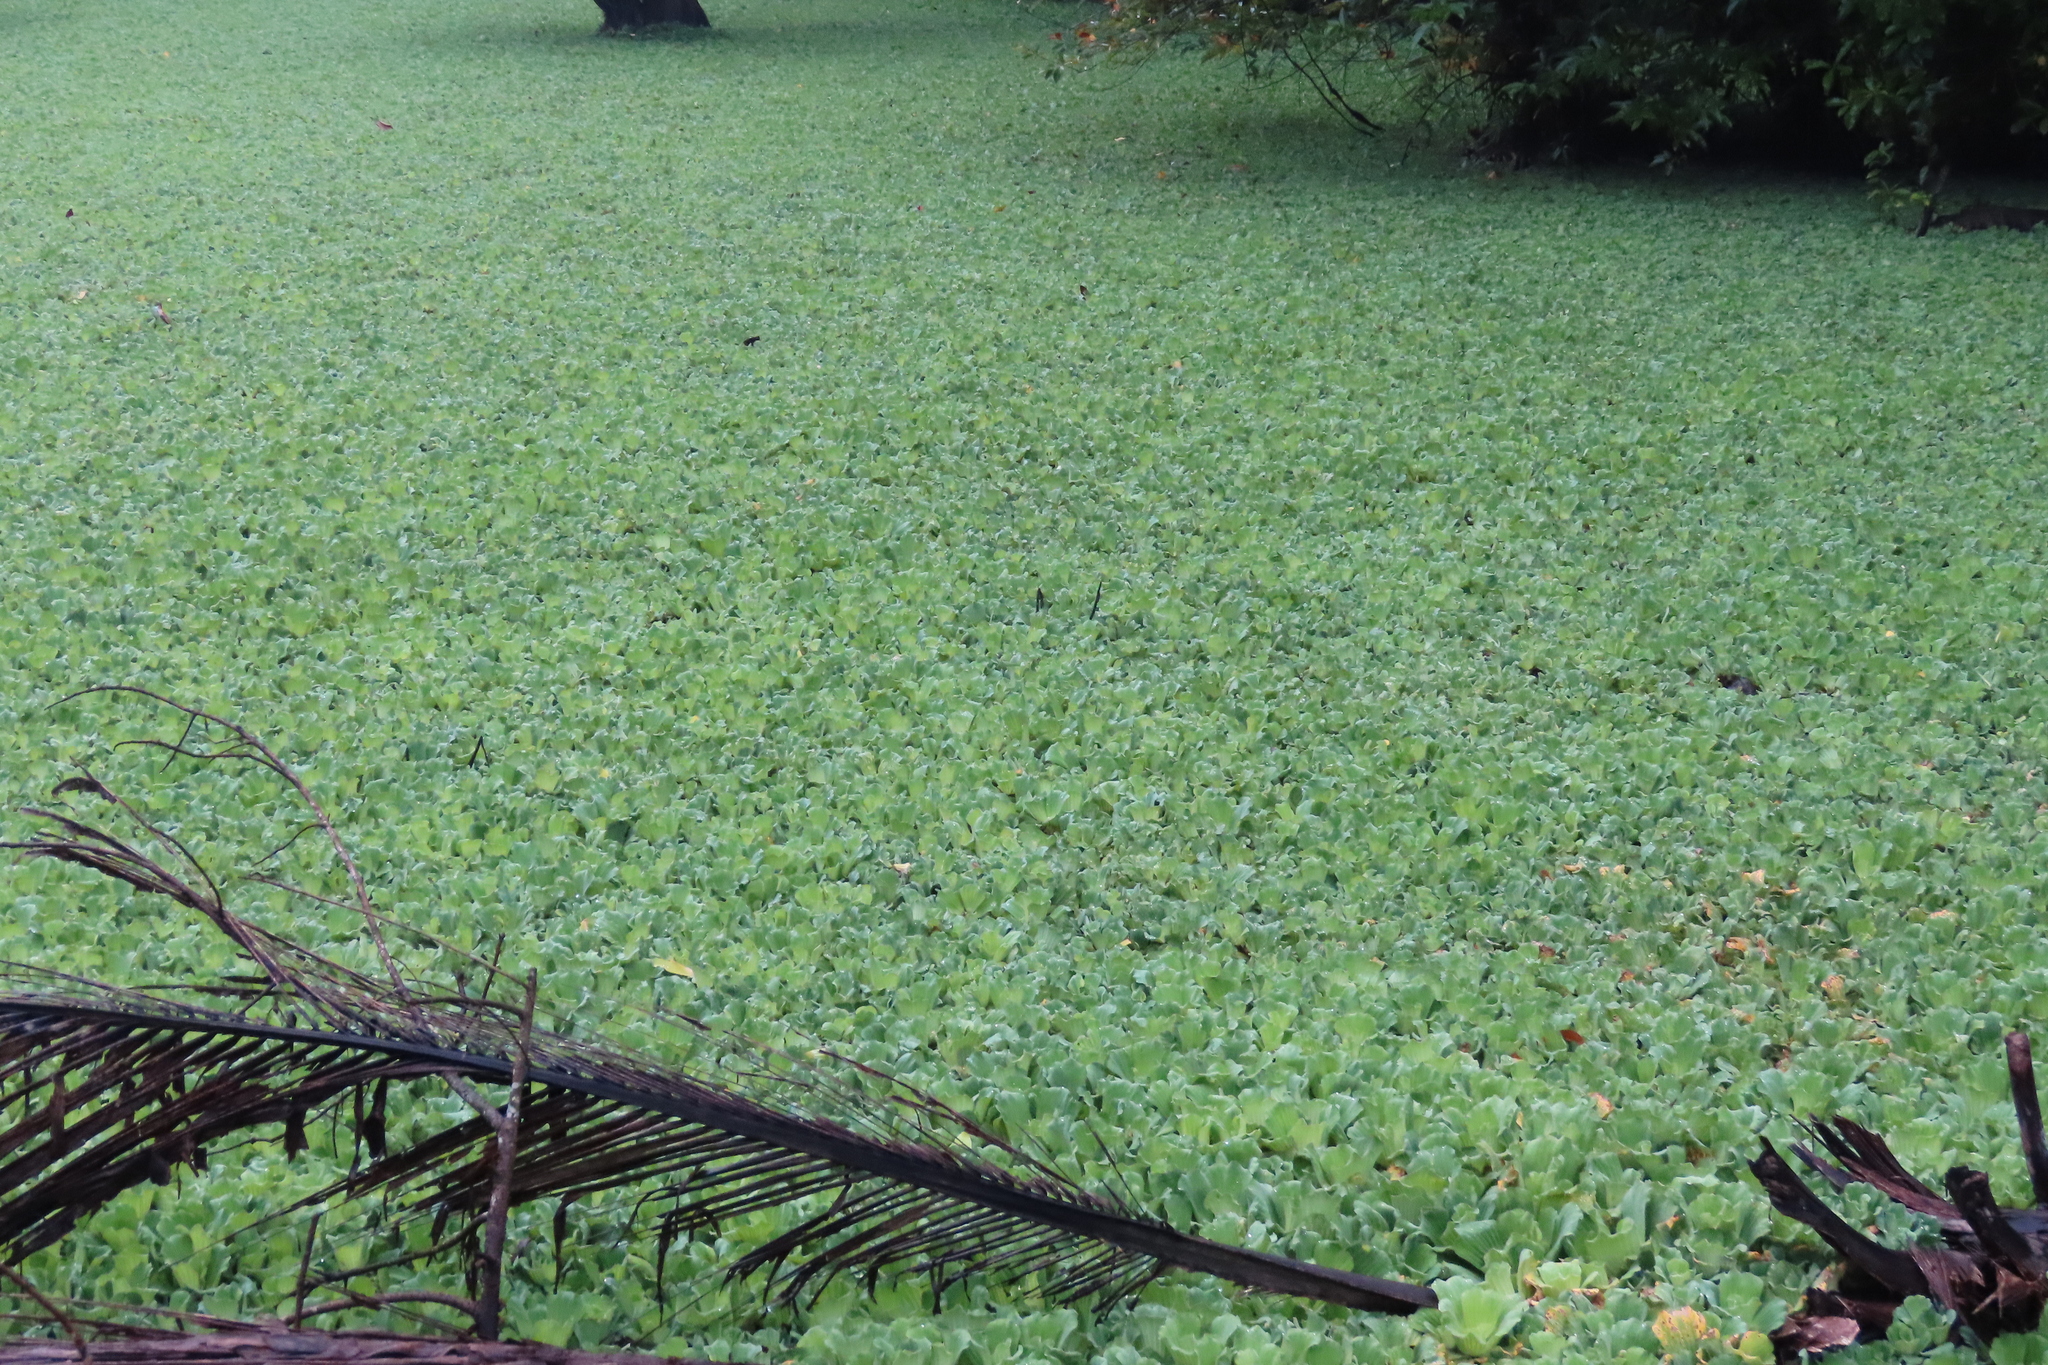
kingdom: Plantae
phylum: Tracheophyta
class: Liliopsida
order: Alismatales
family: Araceae
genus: Pistia
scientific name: Pistia stratiotes
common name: Water lettuce
